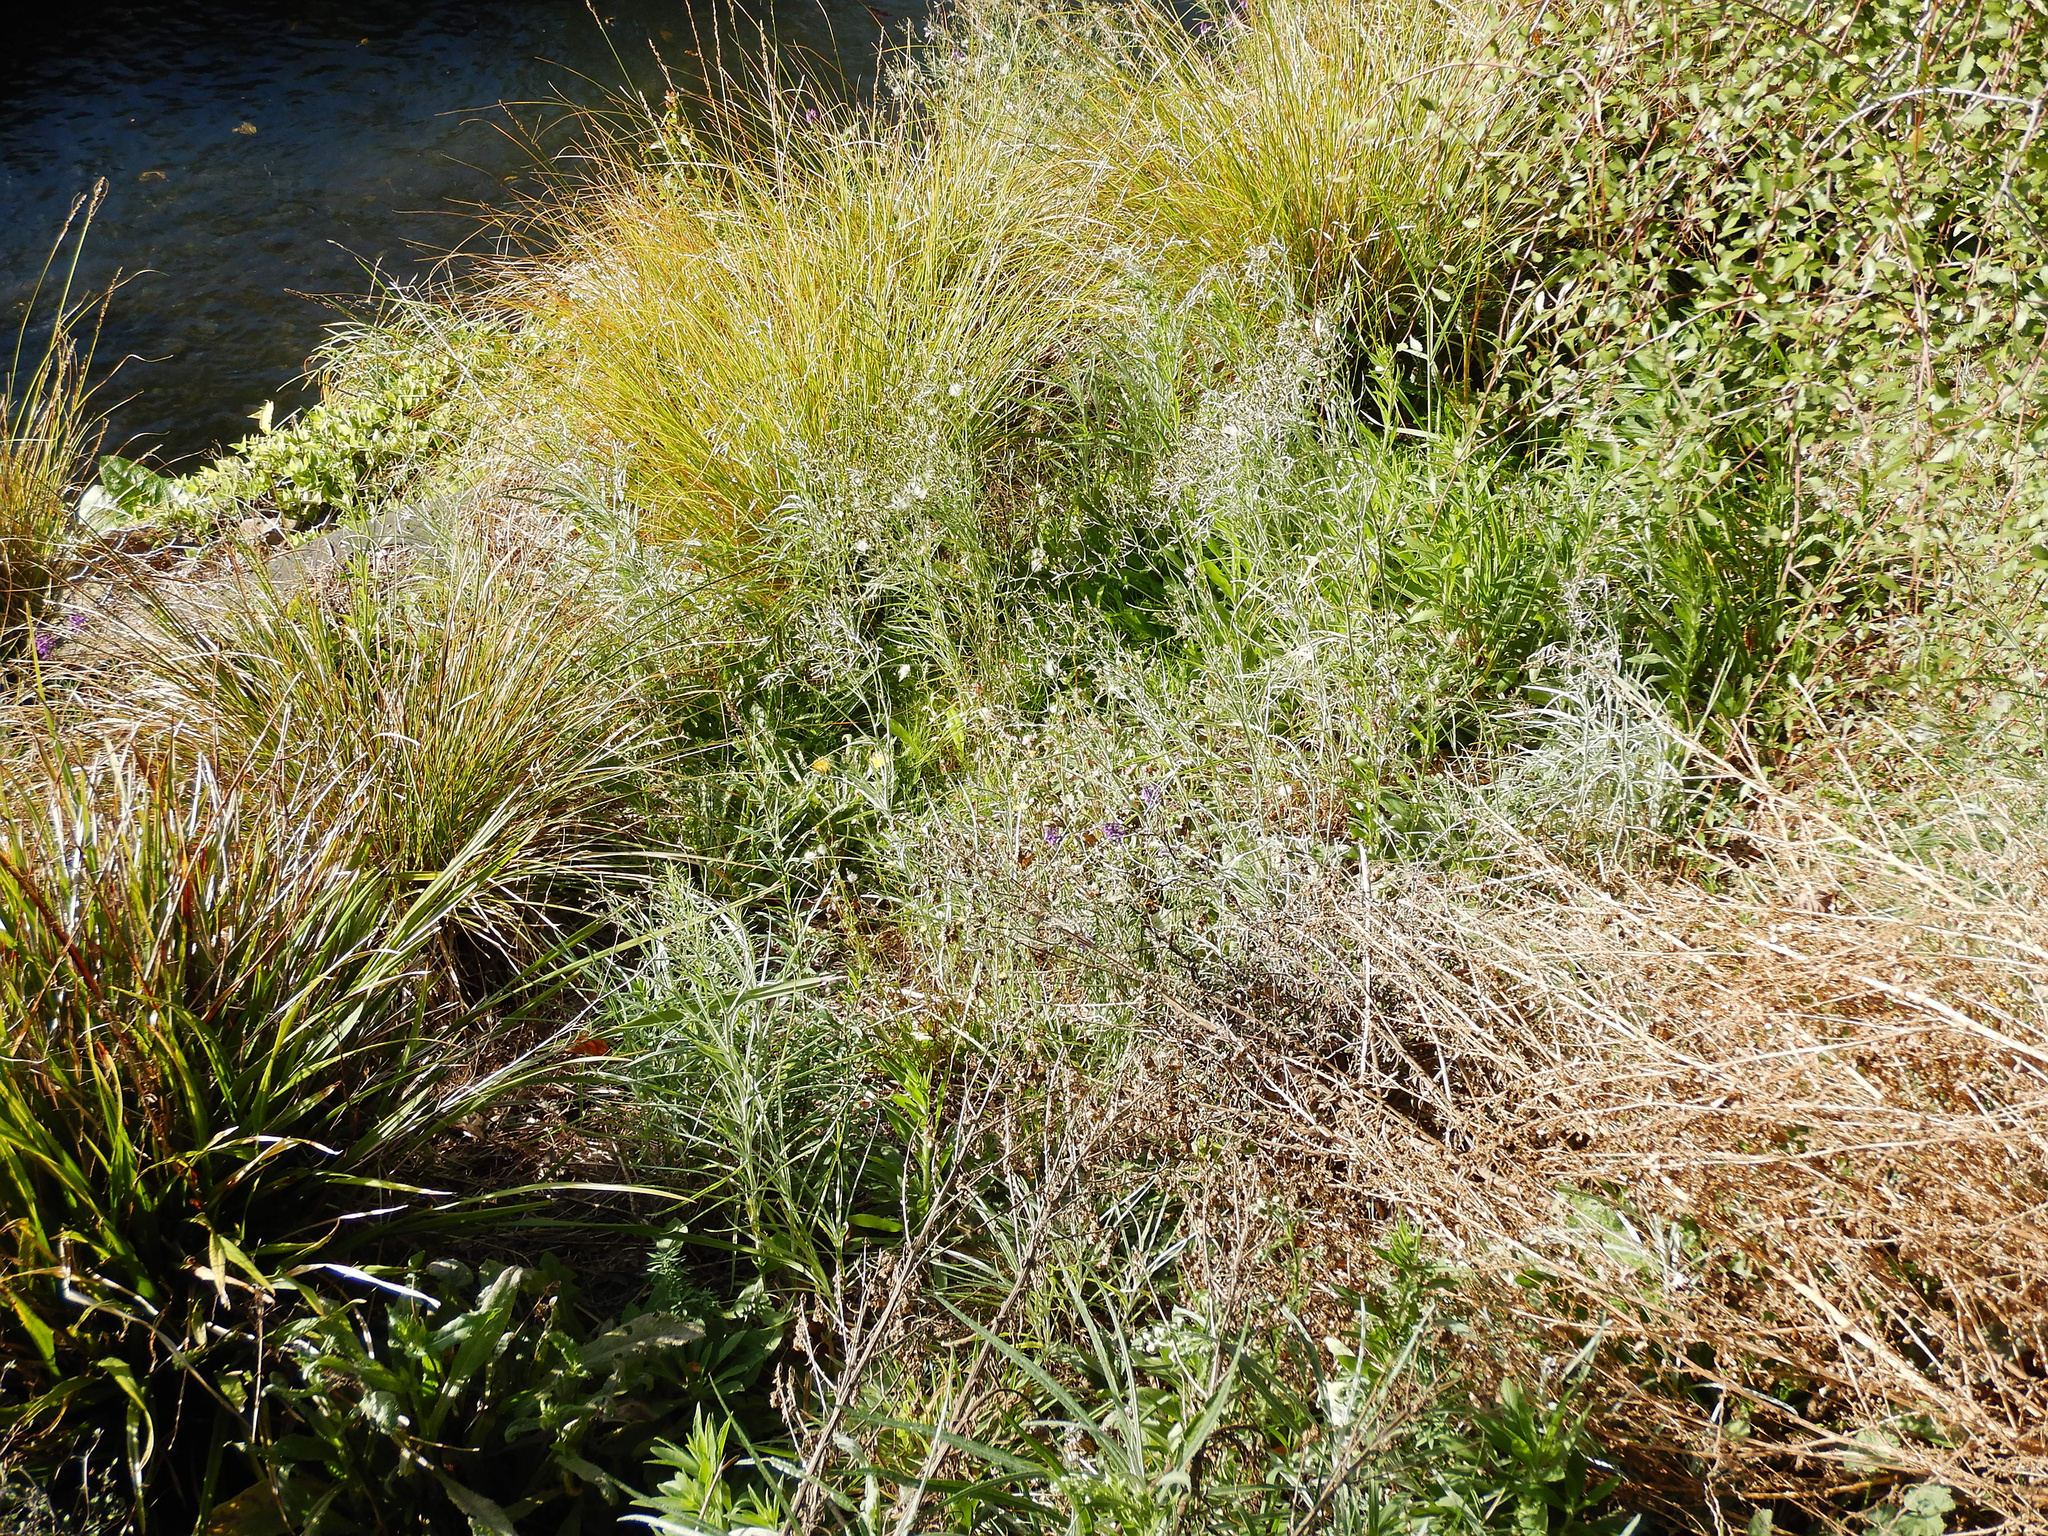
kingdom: Plantae
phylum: Tracheophyta
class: Magnoliopsida
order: Asterales
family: Asteraceae
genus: Senecio
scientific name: Senecio quadridentatus
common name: Cotton fireweed
